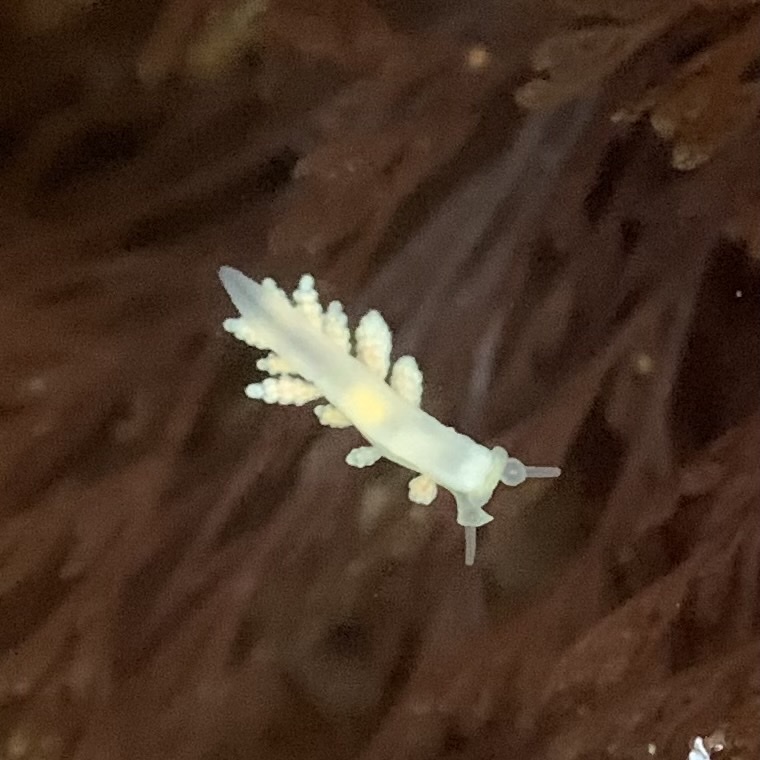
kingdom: Animalia
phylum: Mollusca
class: Gastropoda
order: Nudibranchia
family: Dotidae
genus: Doto
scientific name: Doto amyra
